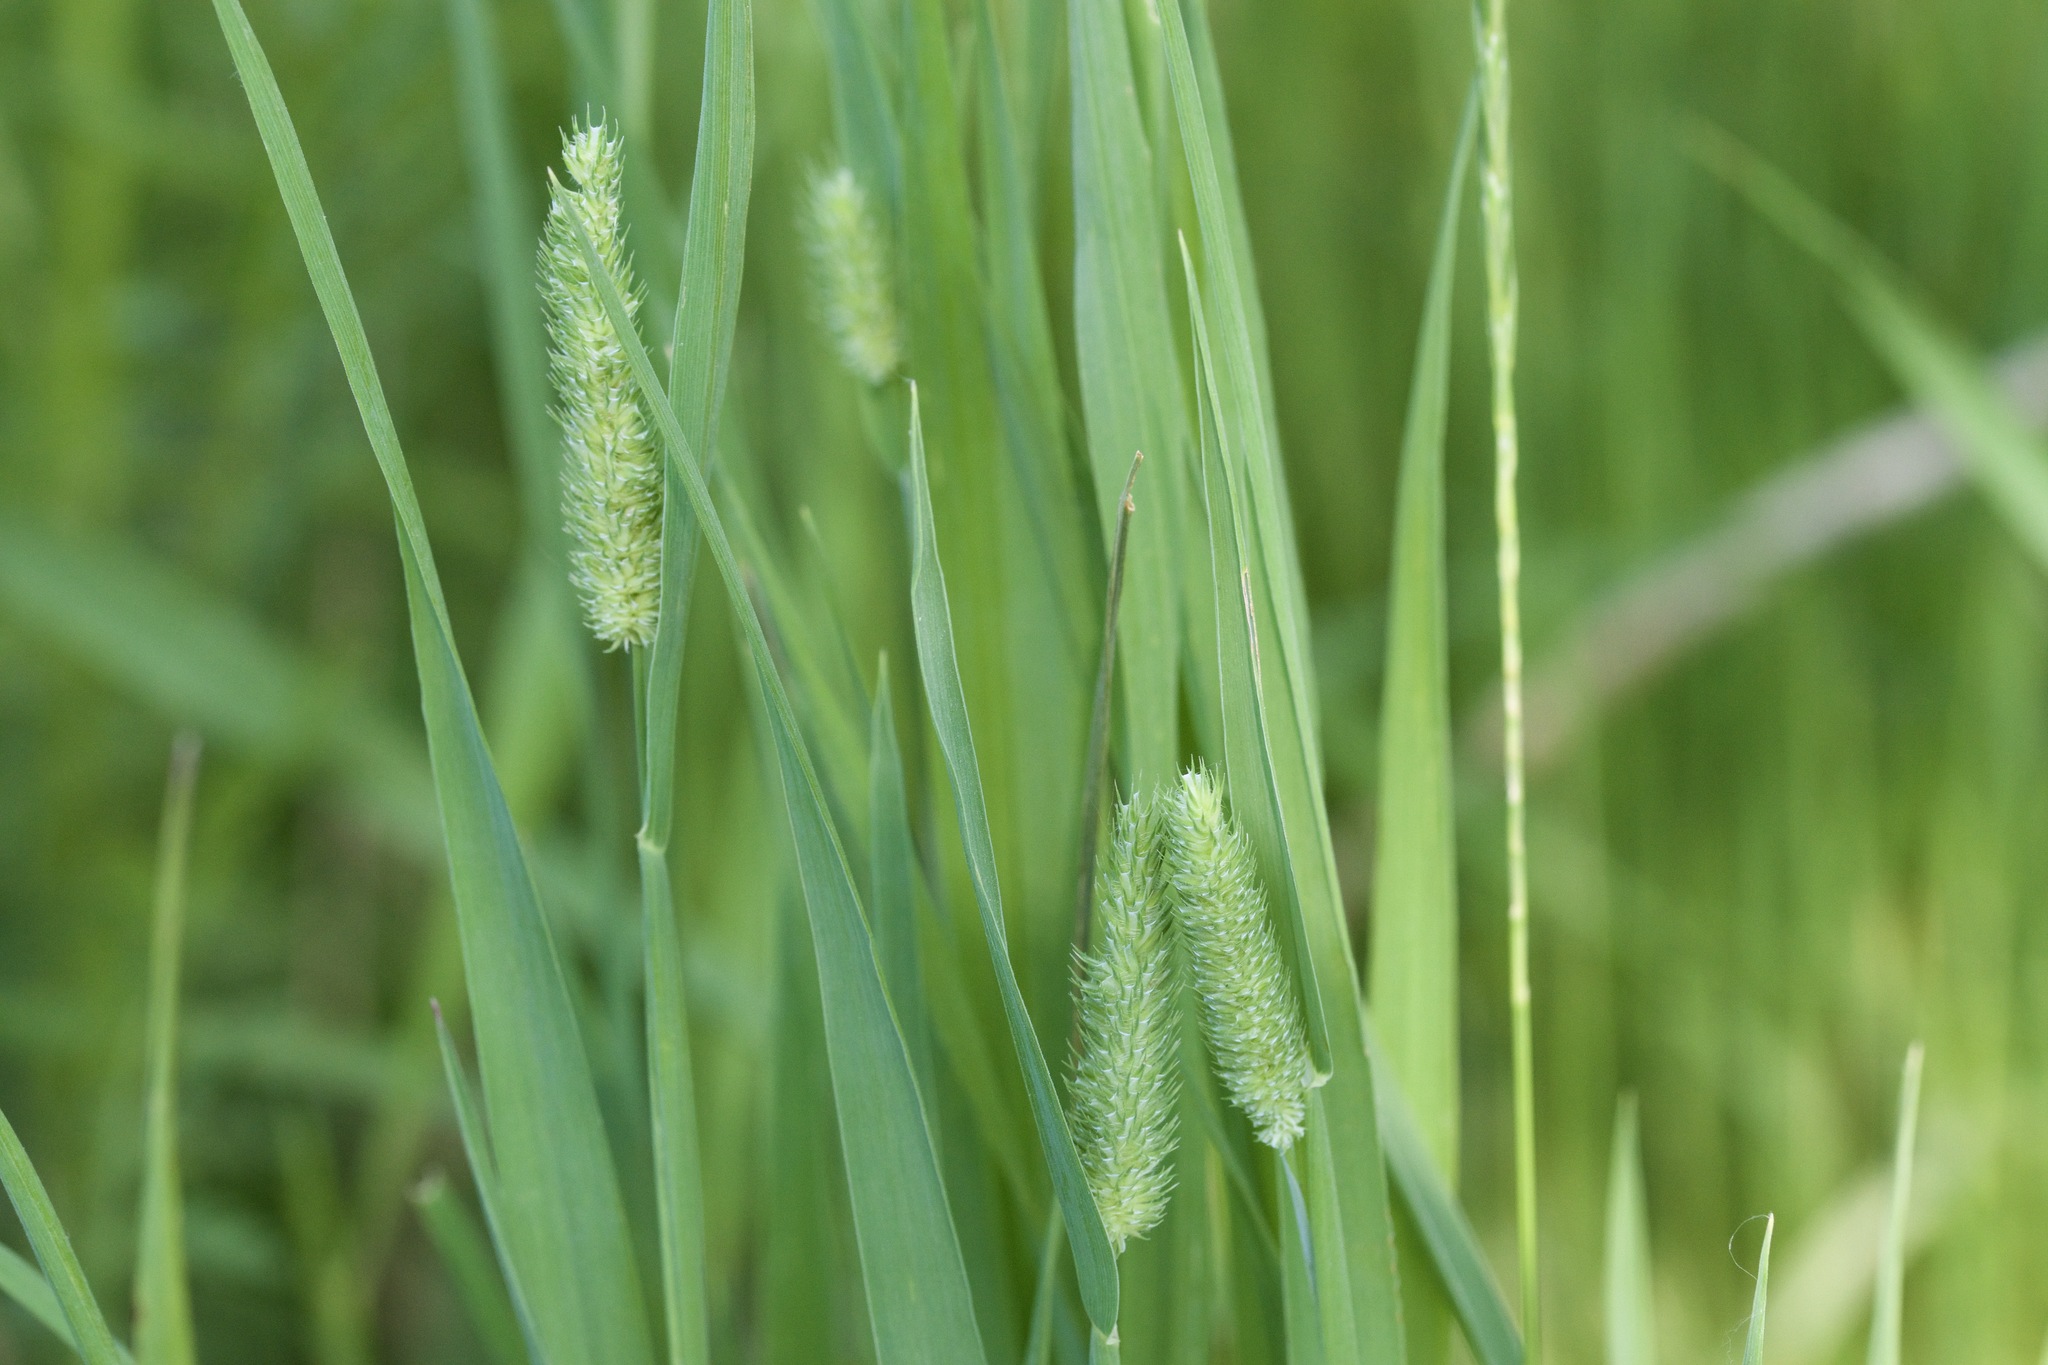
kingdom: Plantae
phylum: Tracheophyta
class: Liliopsida
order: Poales
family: Poaceae
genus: Phleum
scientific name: Phleum pratense
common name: Timothy grass
